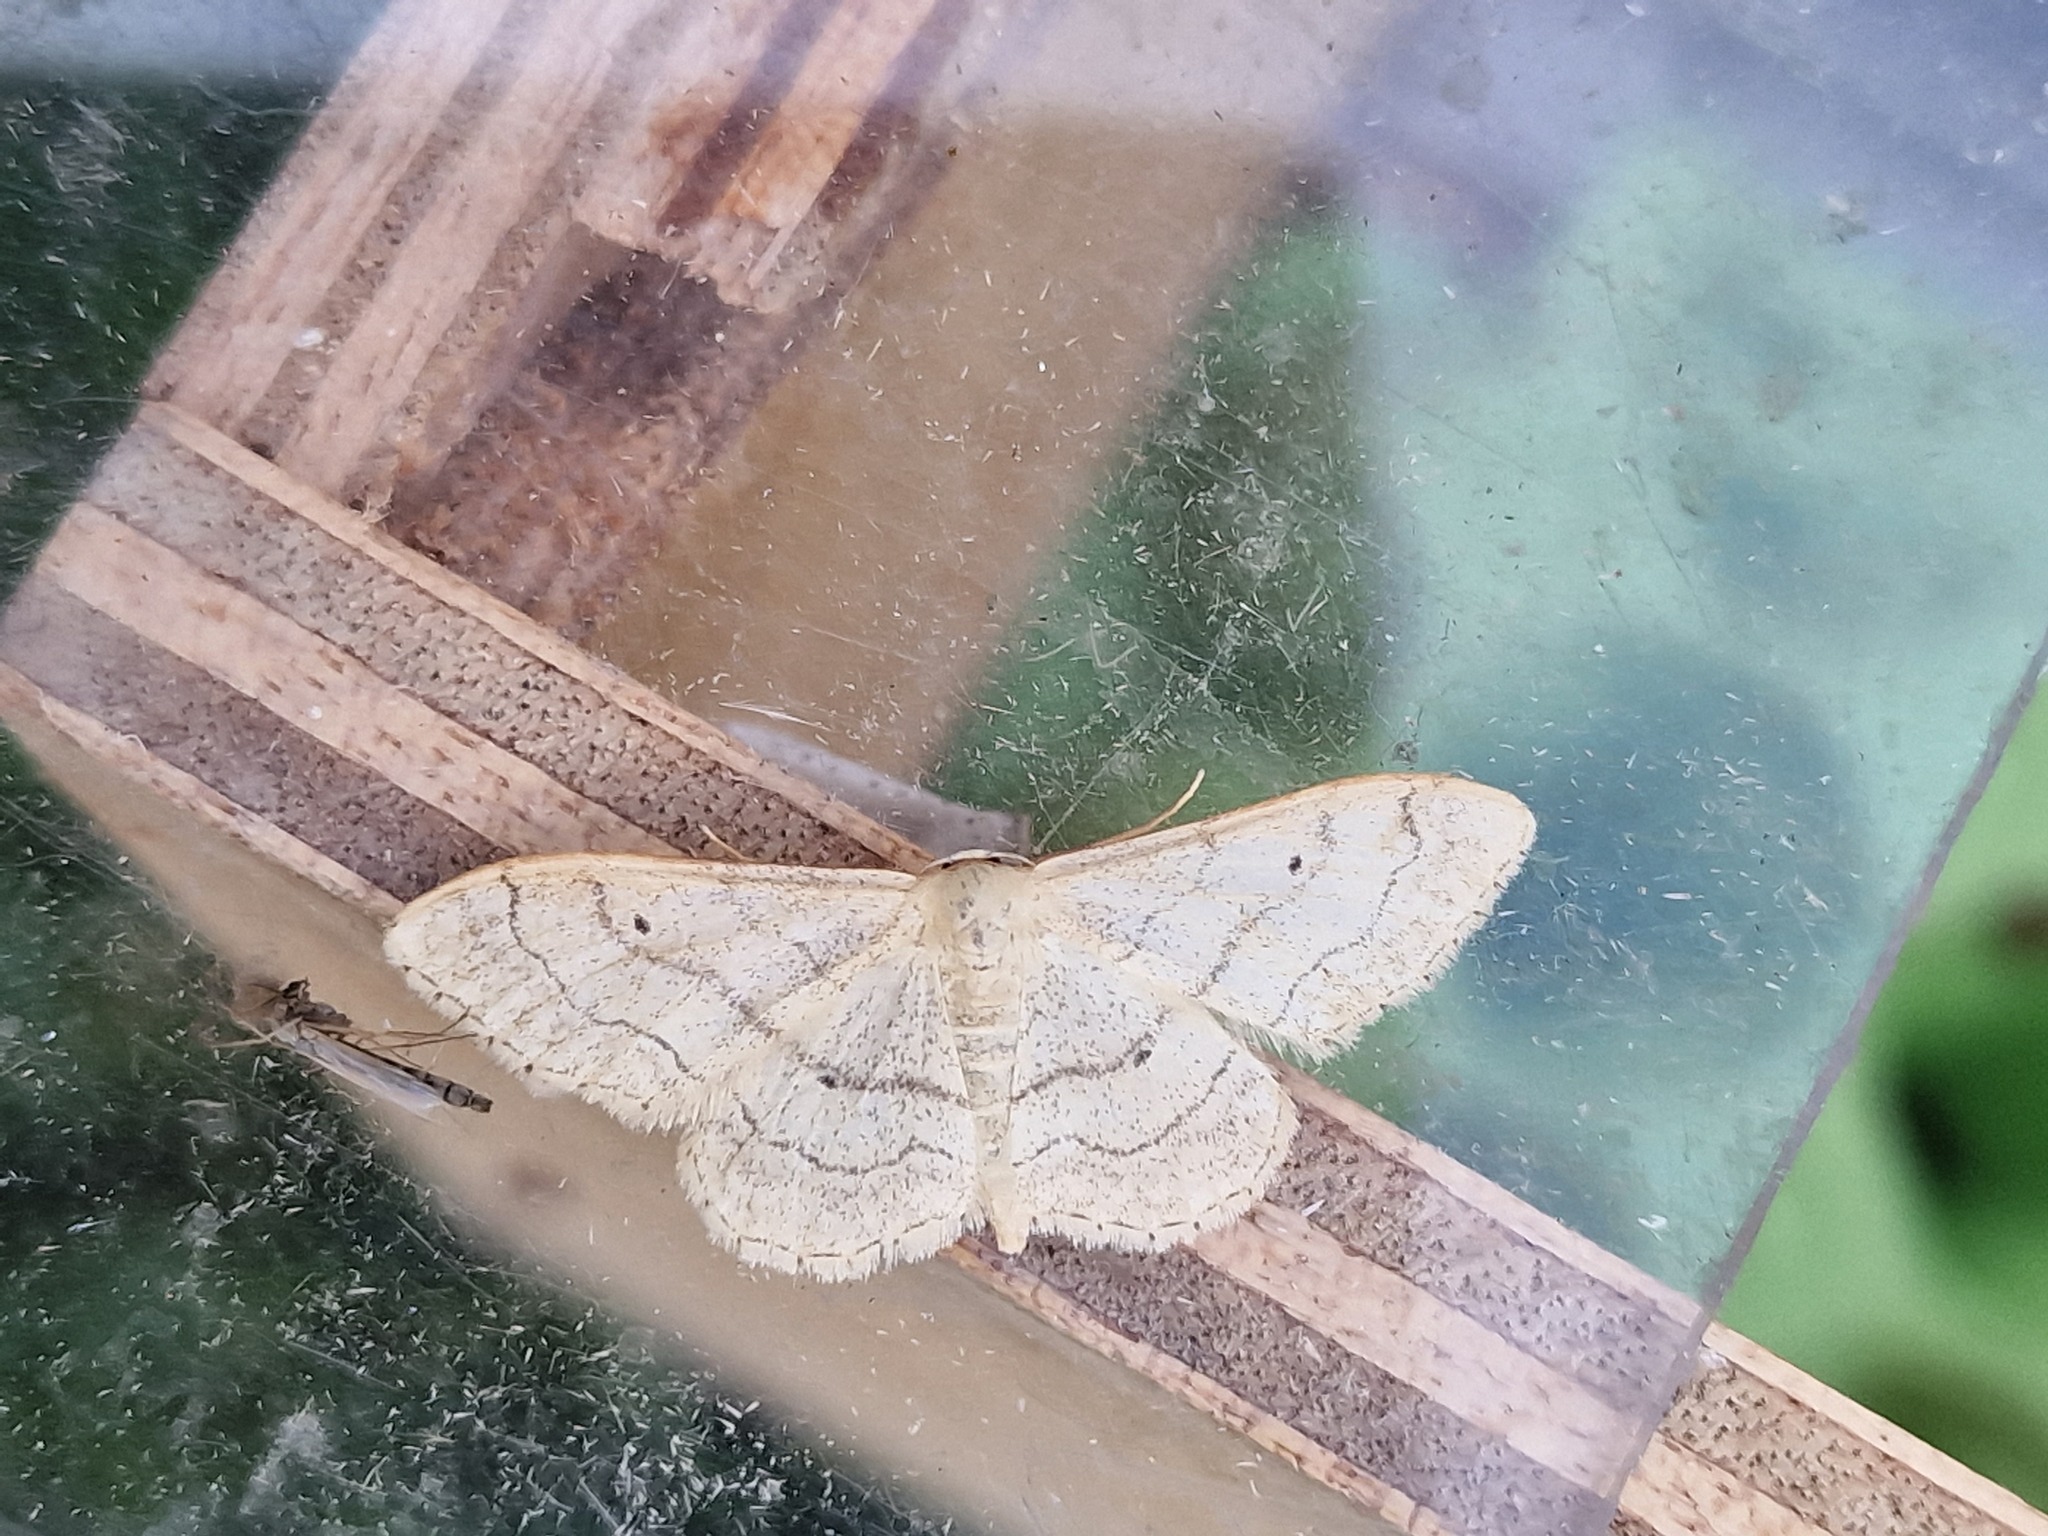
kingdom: Animalia
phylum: Arthropoda
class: Insecta
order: Lepidoptera
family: Geometridae
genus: Idaea
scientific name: Idaea aversata
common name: Riband wave
